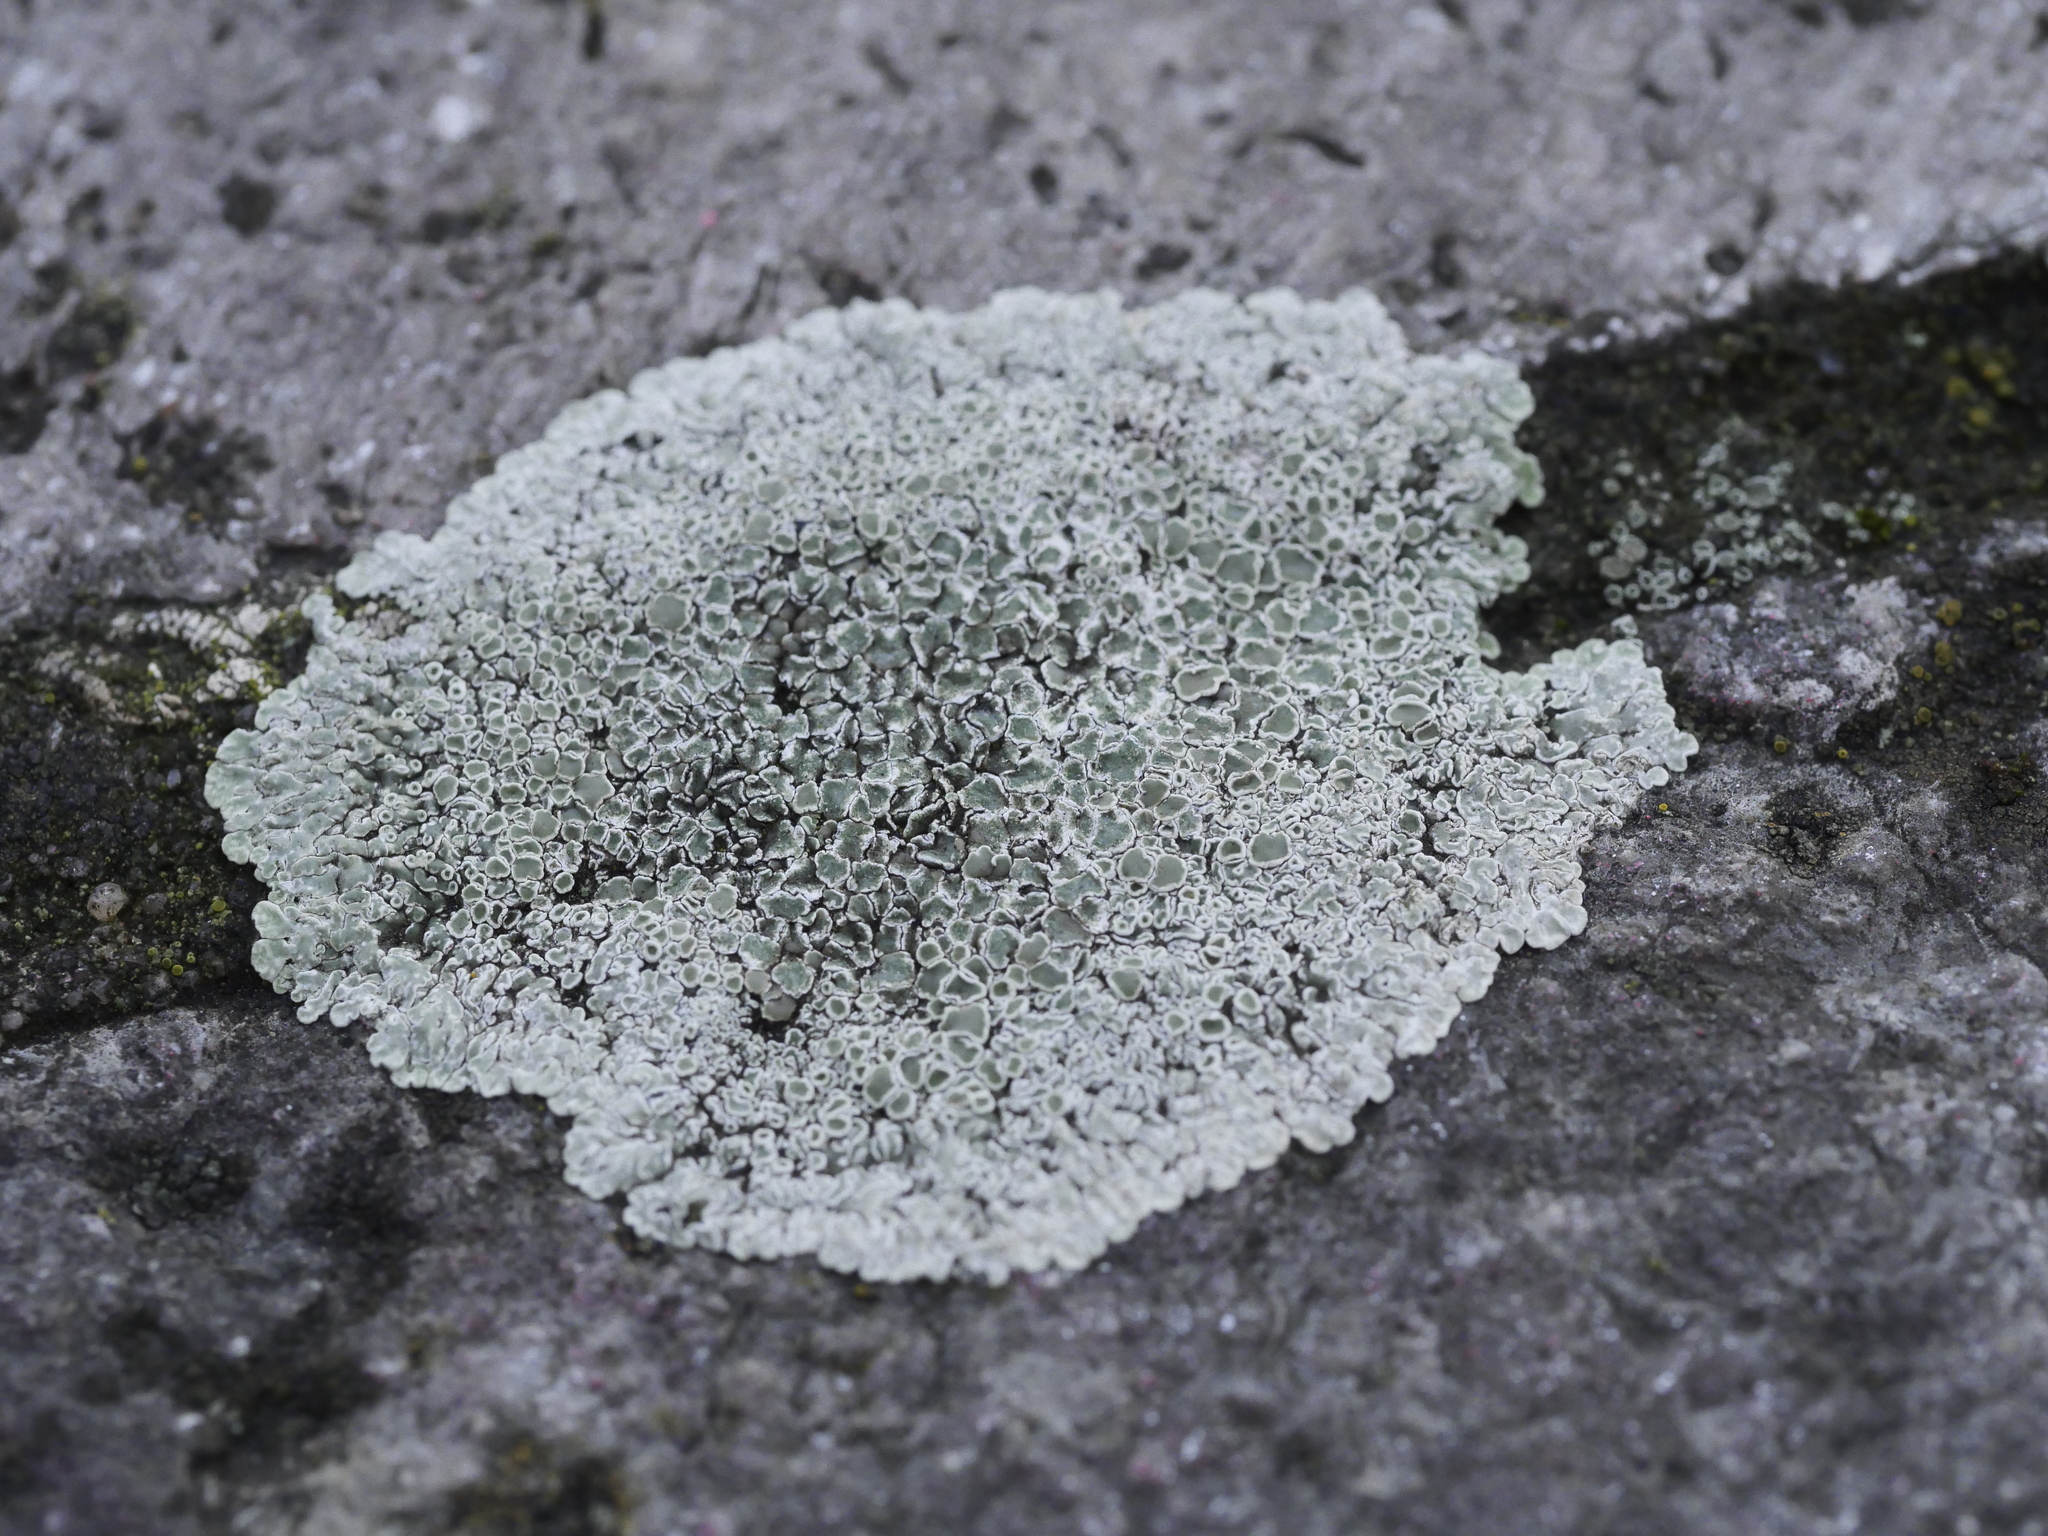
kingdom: Fungi
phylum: Ascomycota
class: Lecanoromycetes
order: Lecanorales
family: Lecanoraceae
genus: Protoparmeliopsis
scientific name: Protoparmeliopsis muralis
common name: Stonewall rim lichen
